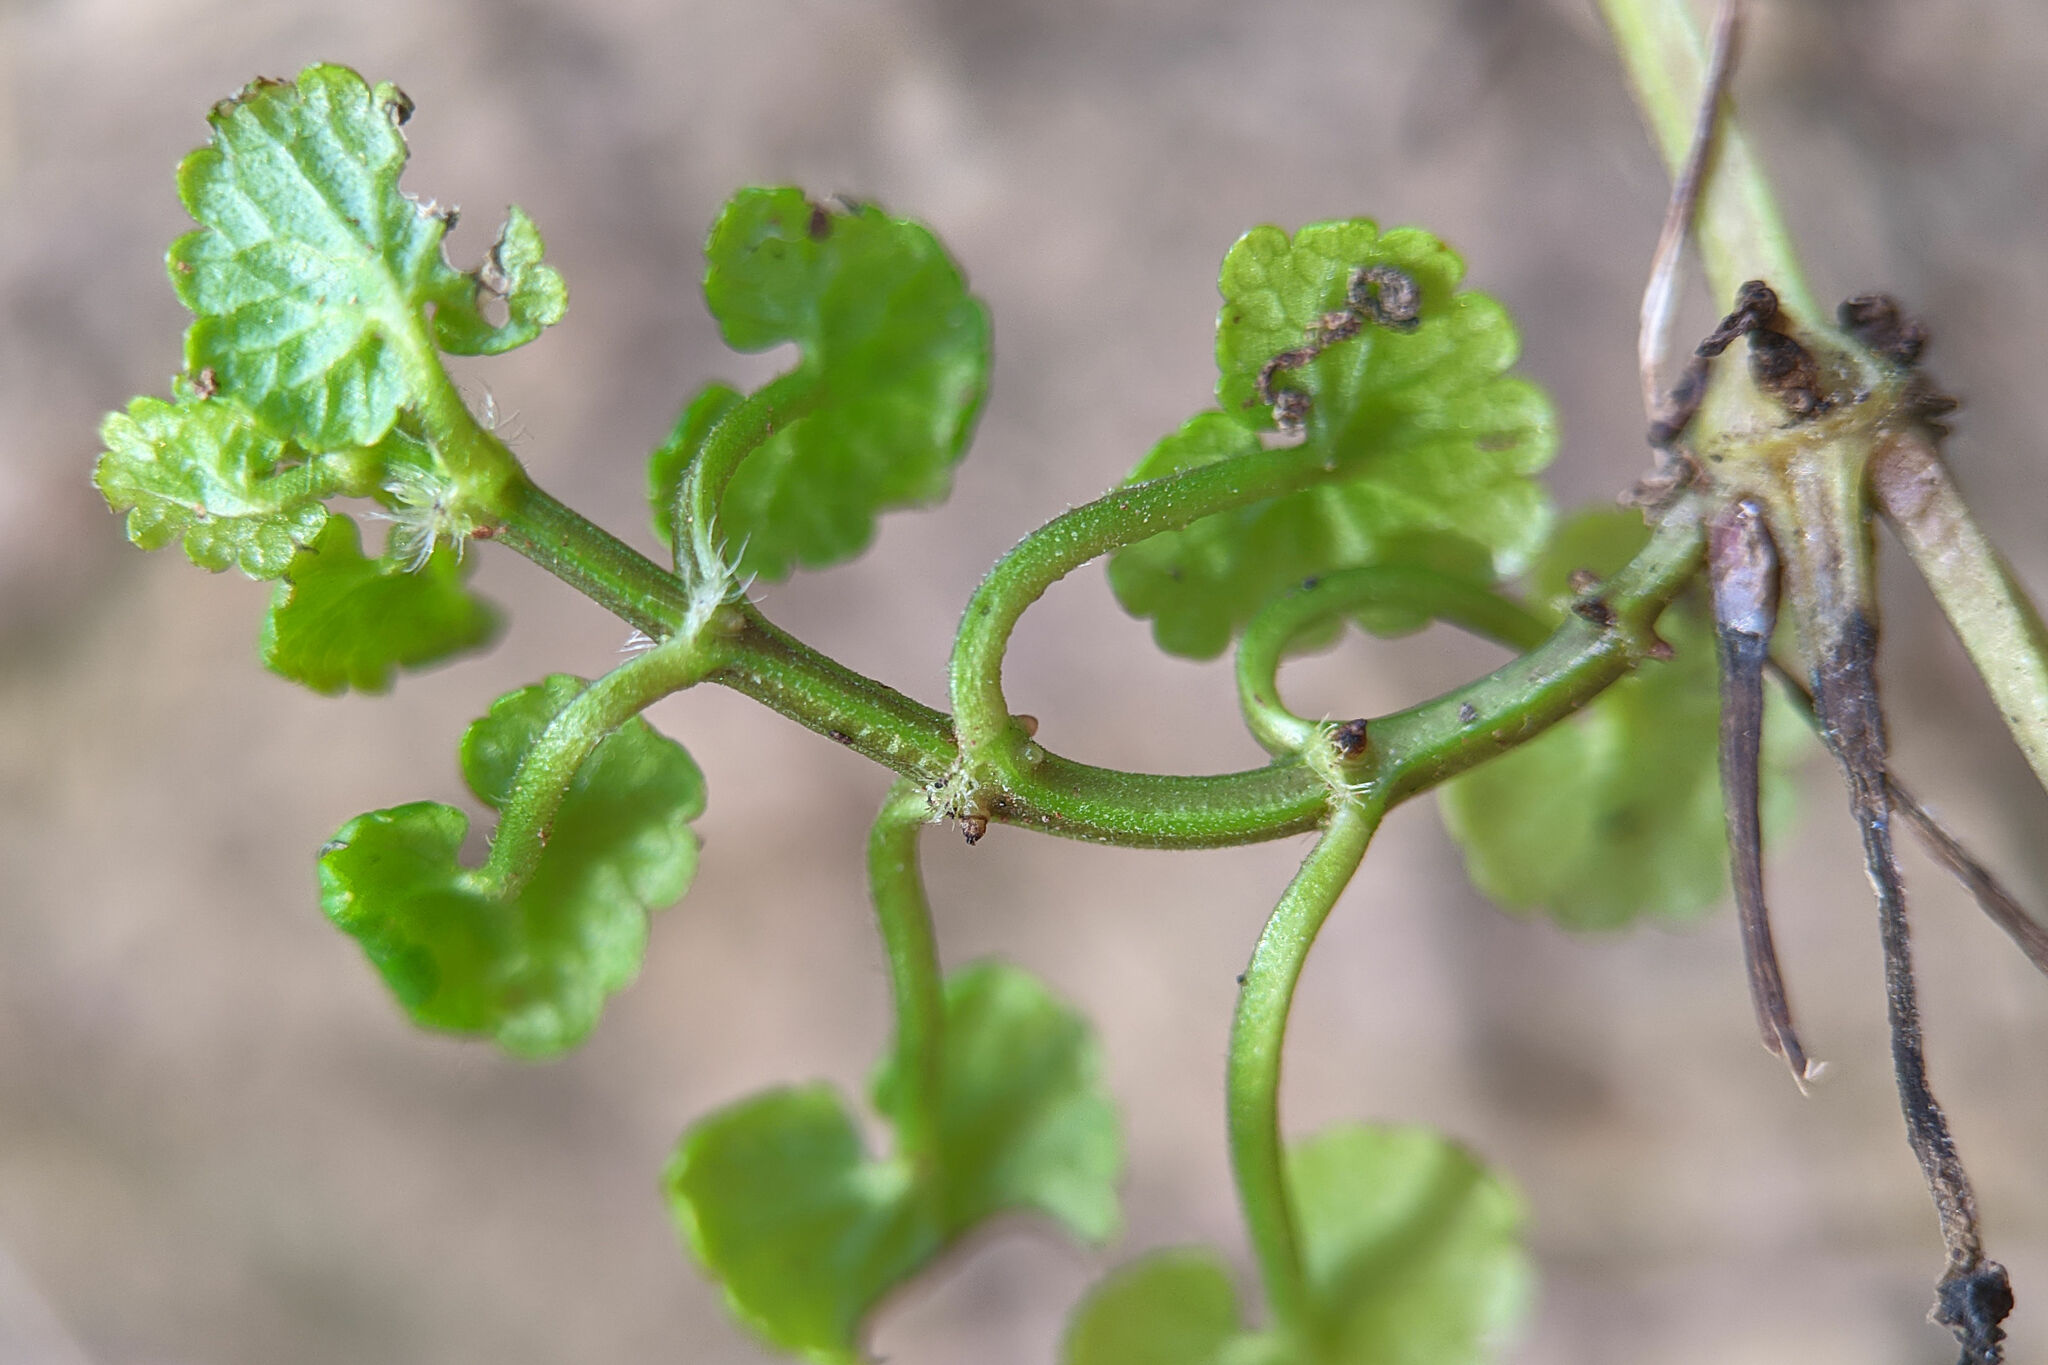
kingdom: Plantae
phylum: Tracheophyta
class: Magnoliopsida
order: Lamiales
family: Lamiaceae
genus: Glechoma
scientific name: Glechoma hederacea
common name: Ground ivy
